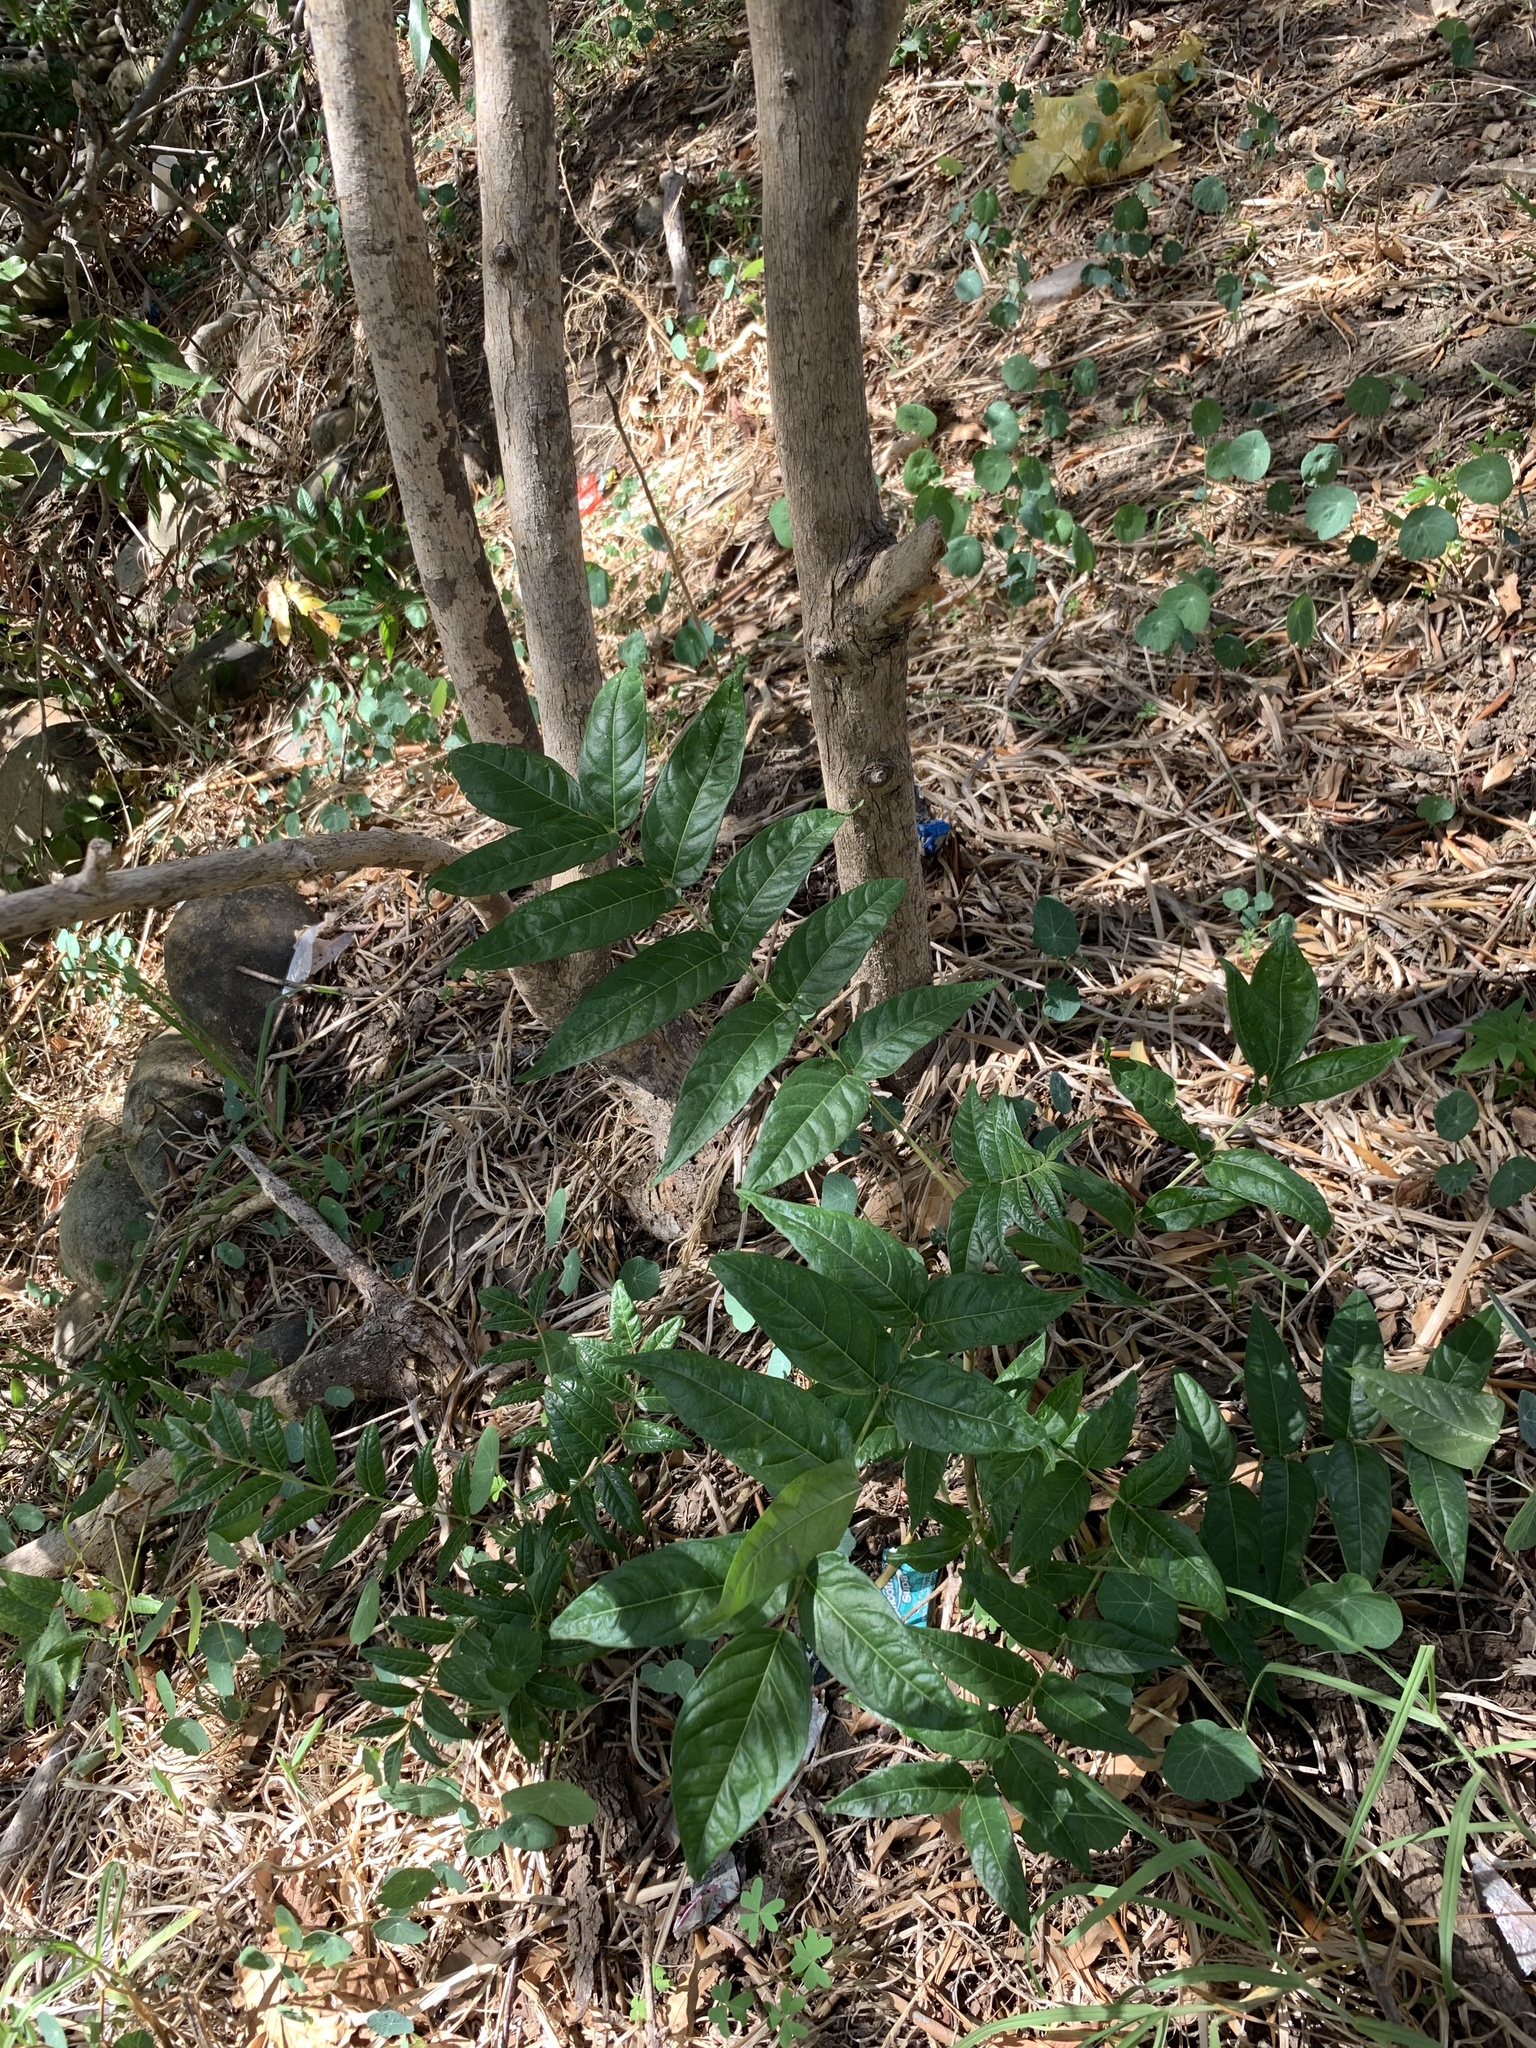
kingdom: Plantae
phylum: Tracheophyta
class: Magnoliopsida
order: Sapindales
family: Simaroubaceae
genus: Ailanthus
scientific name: Ailanthus altissima
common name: Tree-of-heaven
